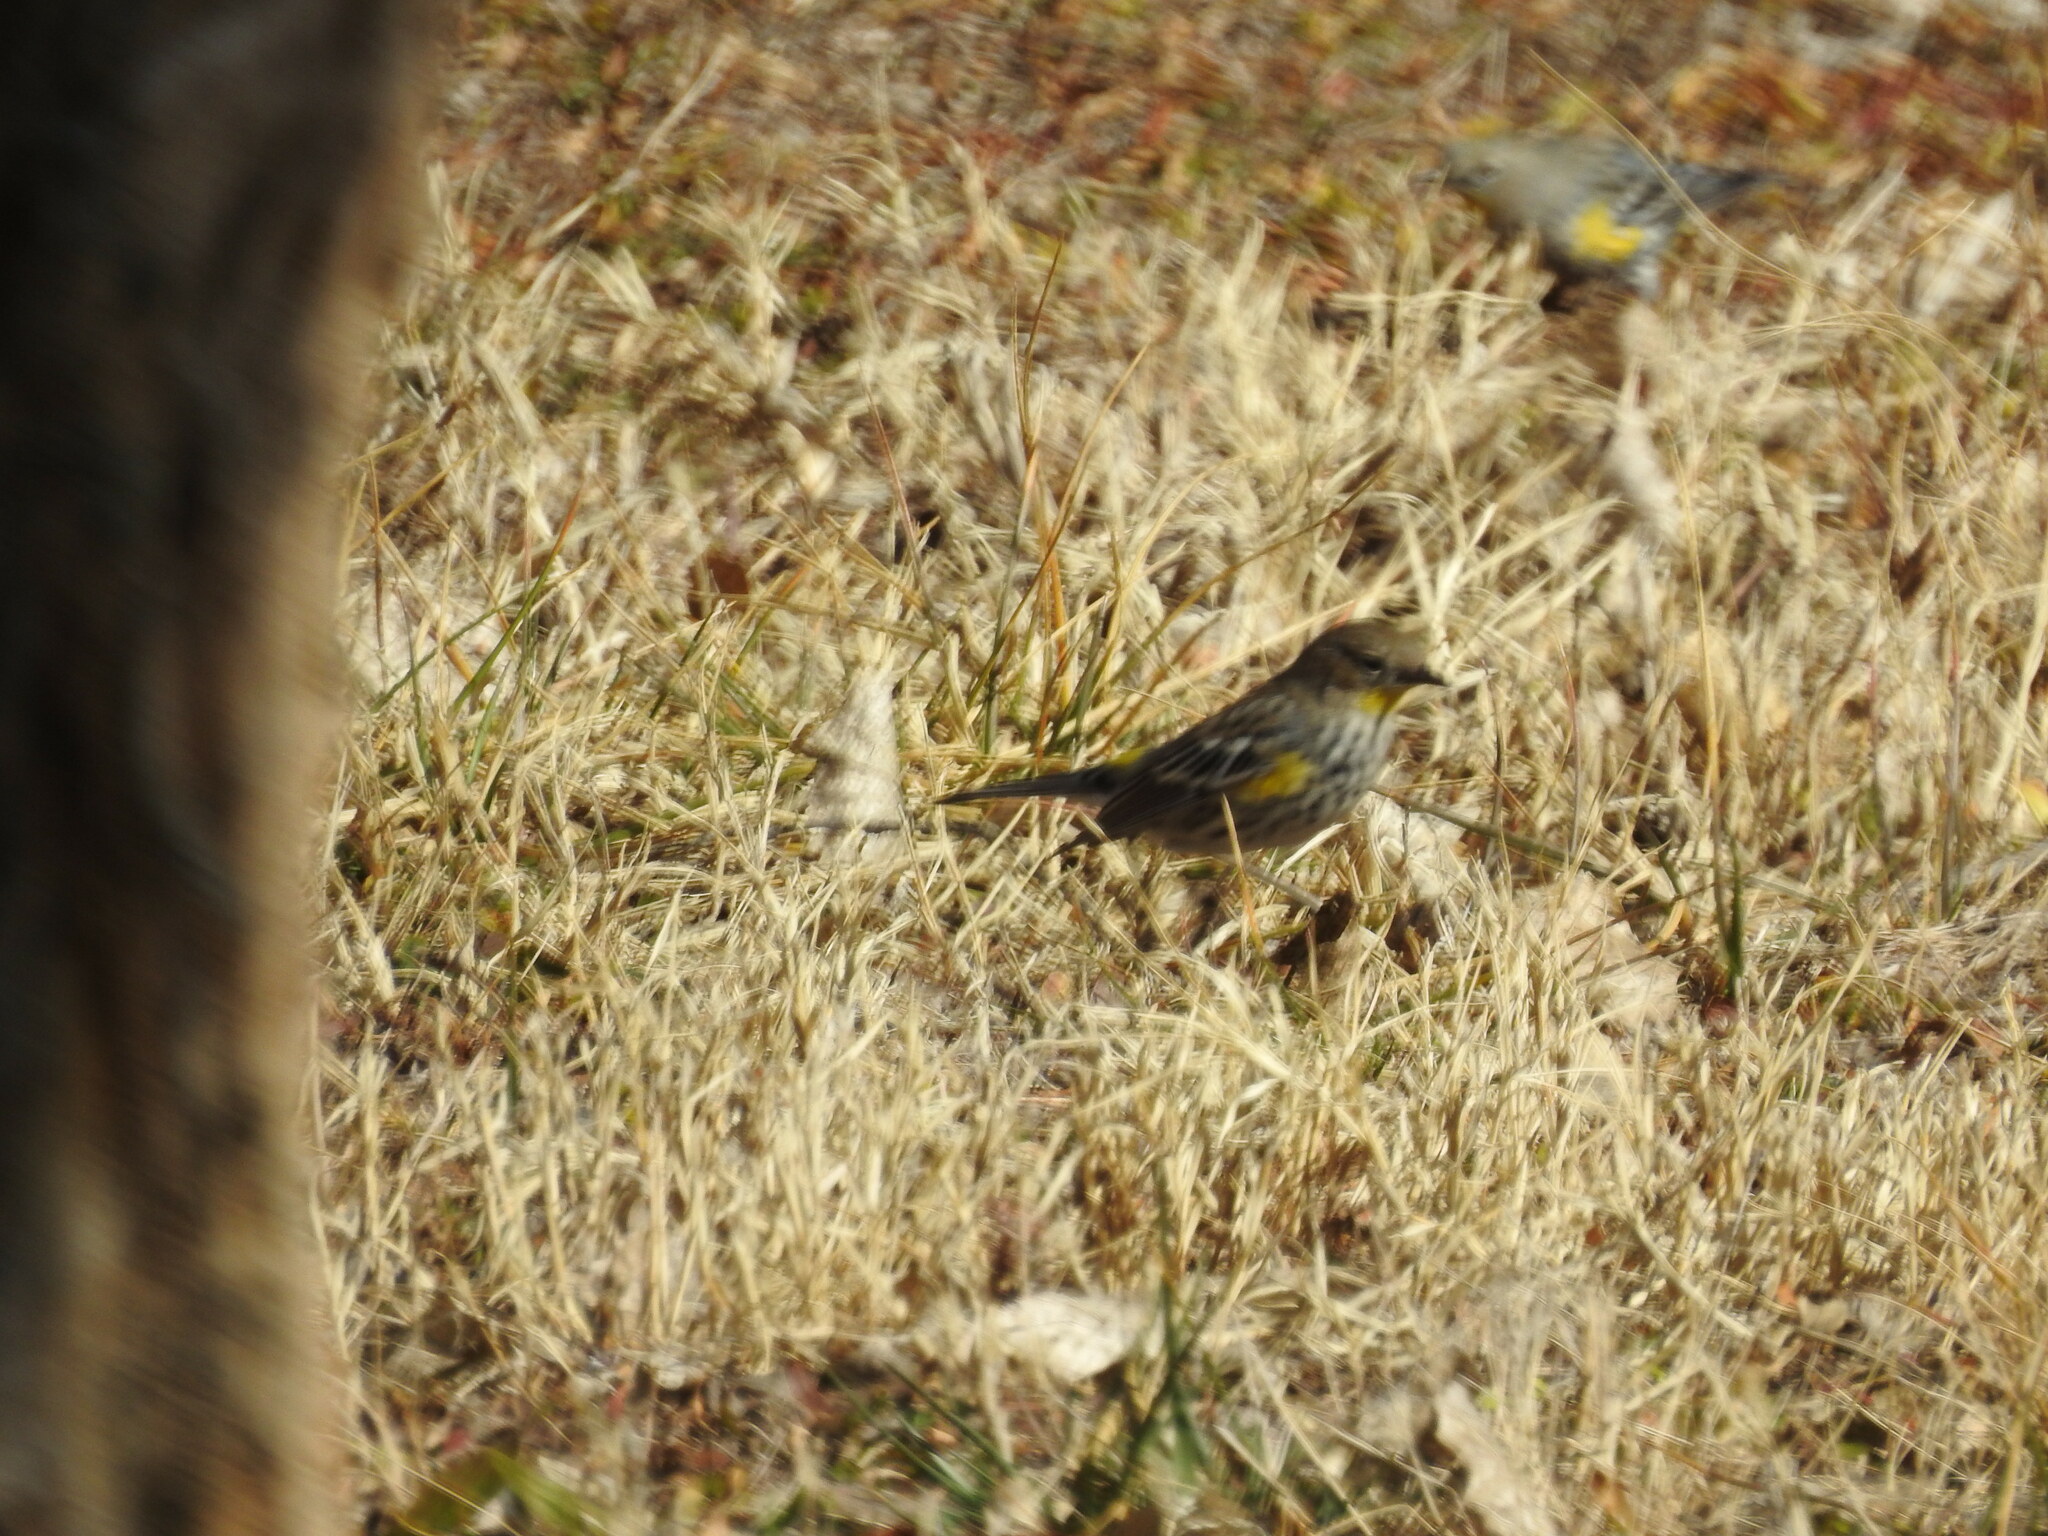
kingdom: Animalia
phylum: Chordata
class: Aves
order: Passeriformes
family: Parulidae
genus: Setophaga
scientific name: Setophaga coronata
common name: Myrtle warbler
